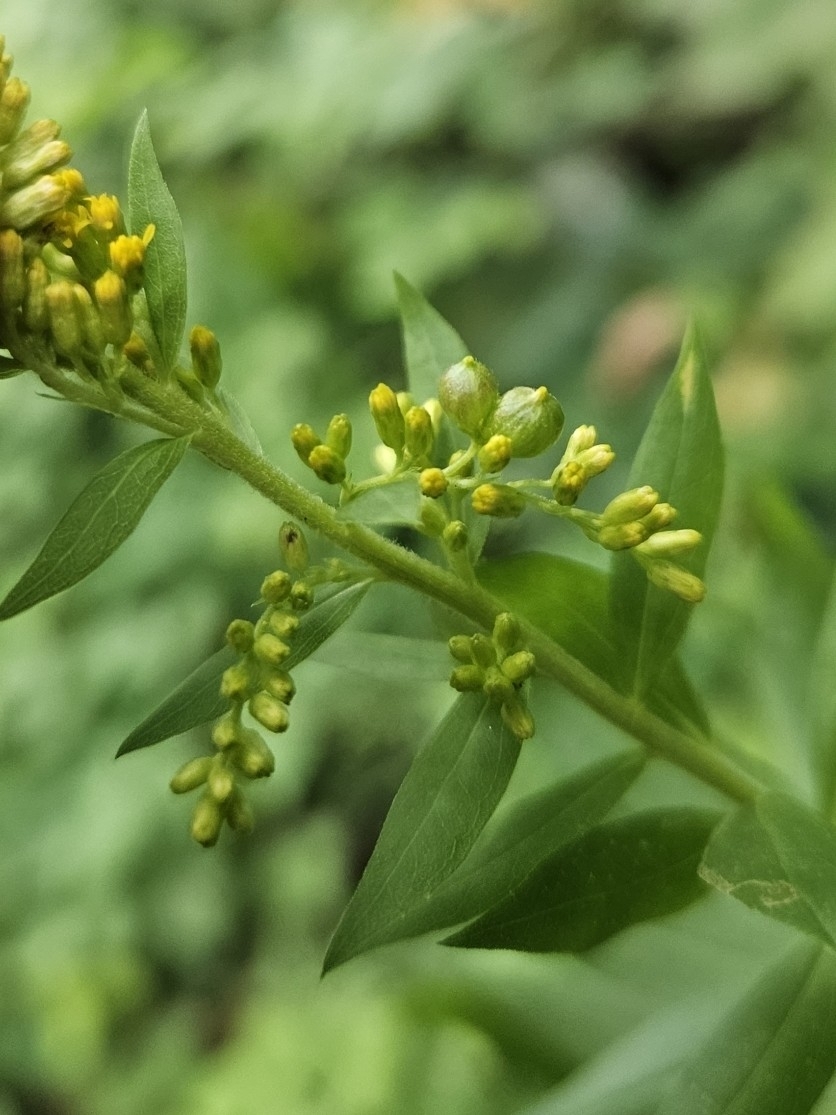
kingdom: Animalia
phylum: Arthropoda
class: Insecta
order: Diptera
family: Cecidomyiidae
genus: Schizomyia
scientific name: Schizomyia racemicola
